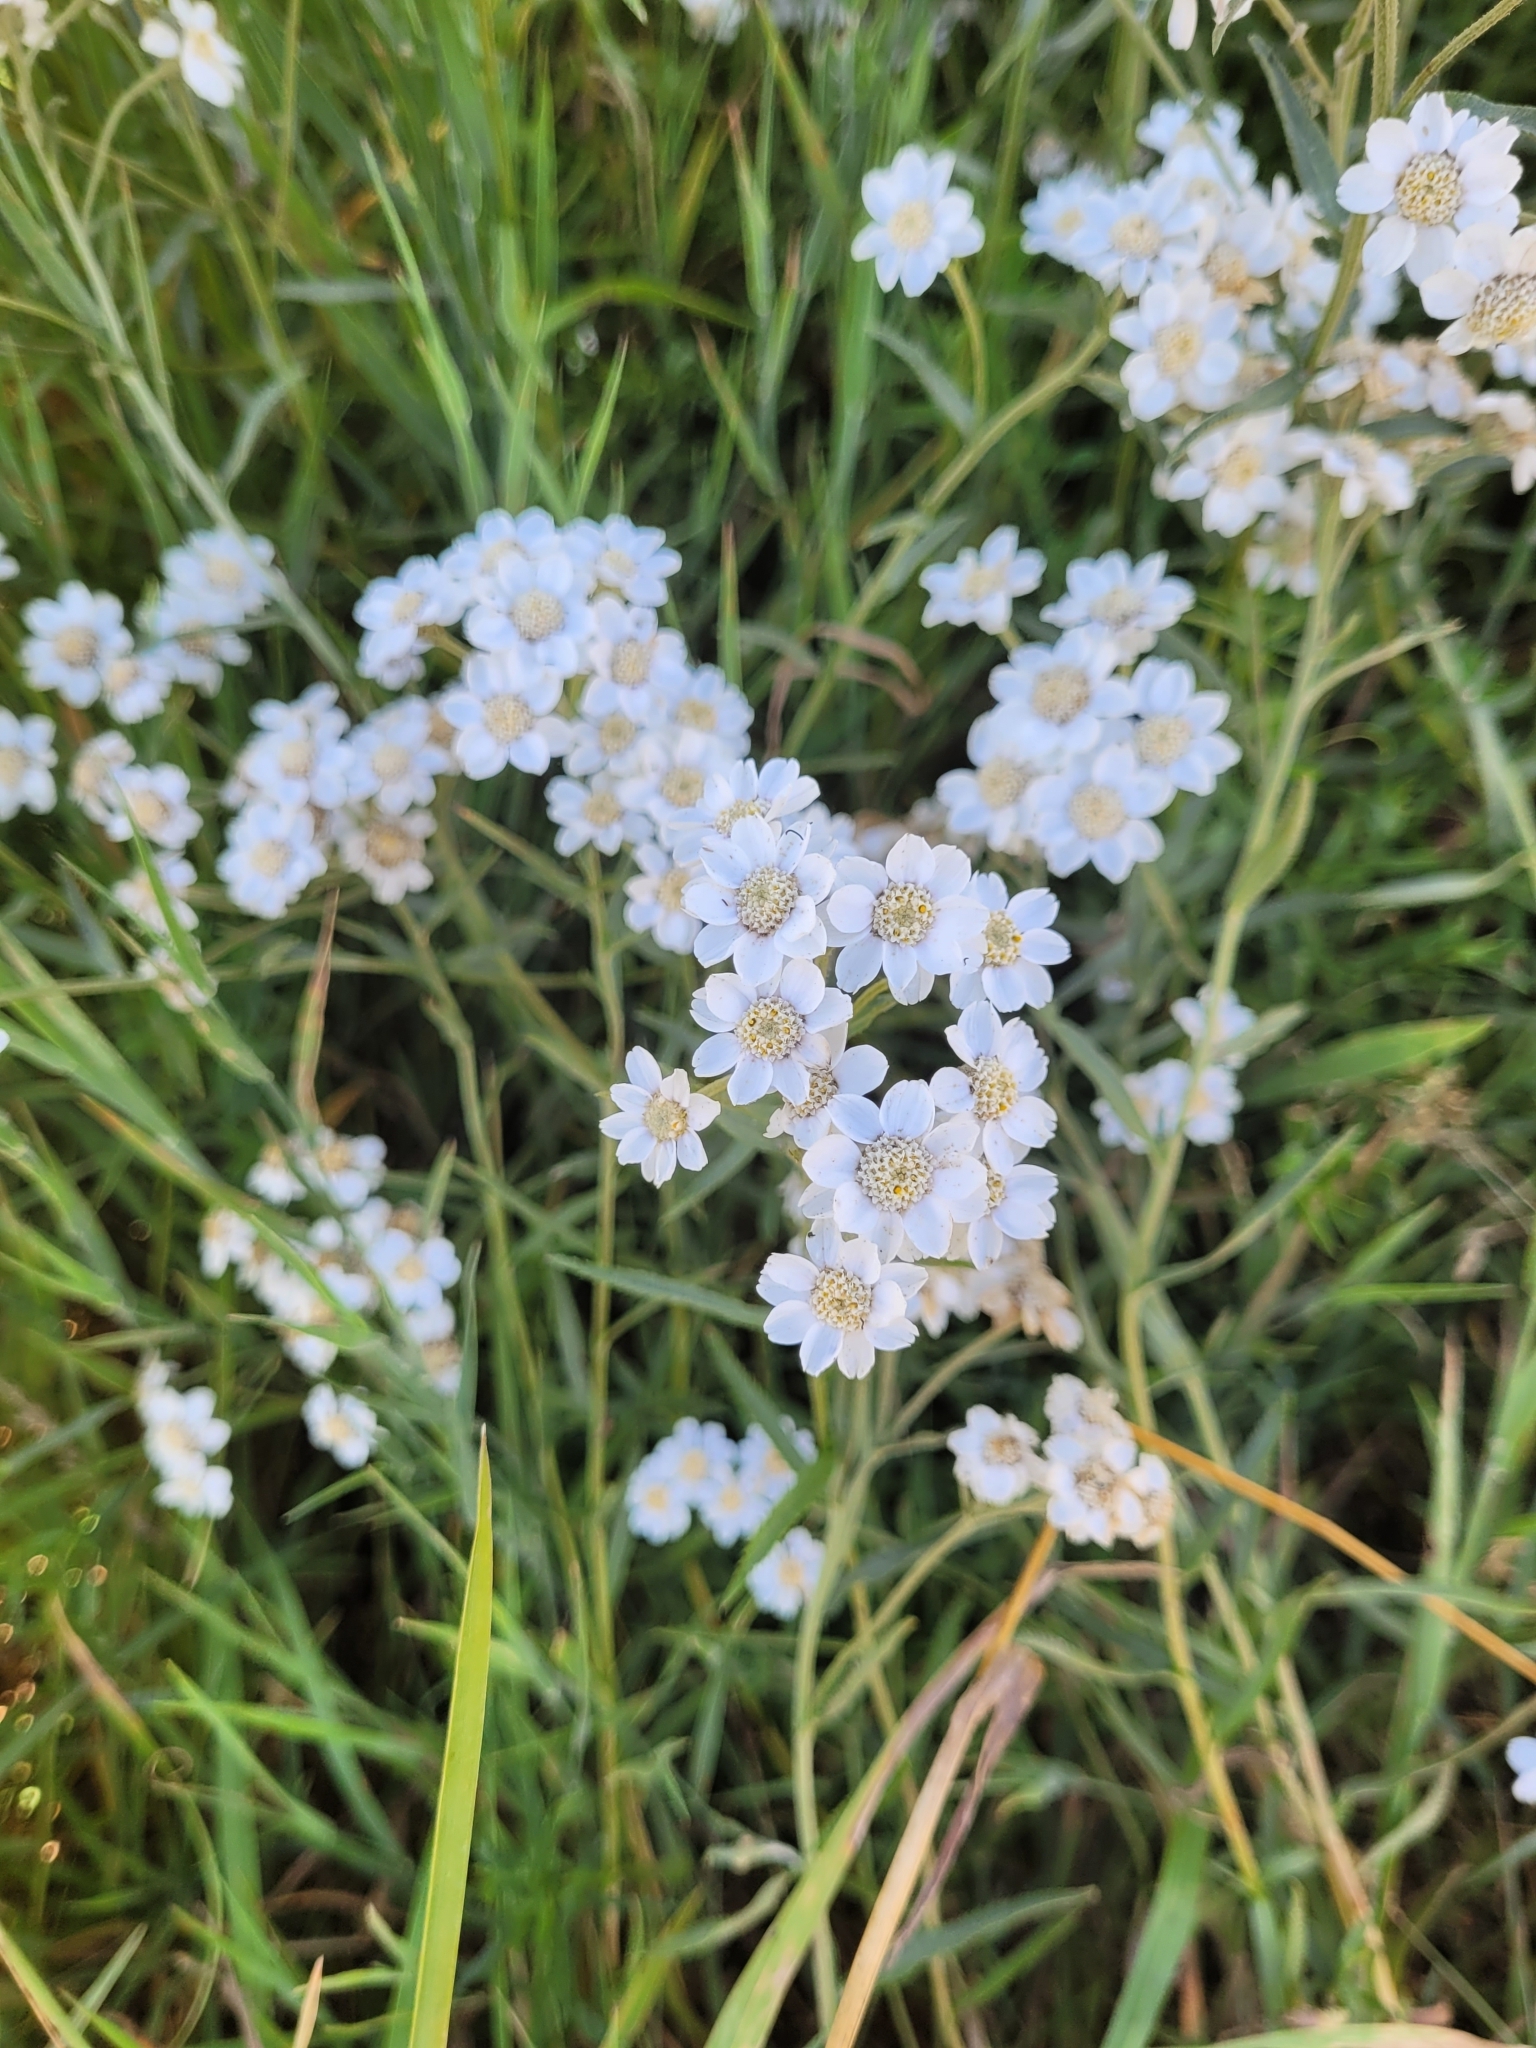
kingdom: Plantae
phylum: Tracheophyta
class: Magnoliopsida
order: Asterales
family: Asteraceae
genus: Achillea
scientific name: Achillea ptarmica
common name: Sneezeweed
